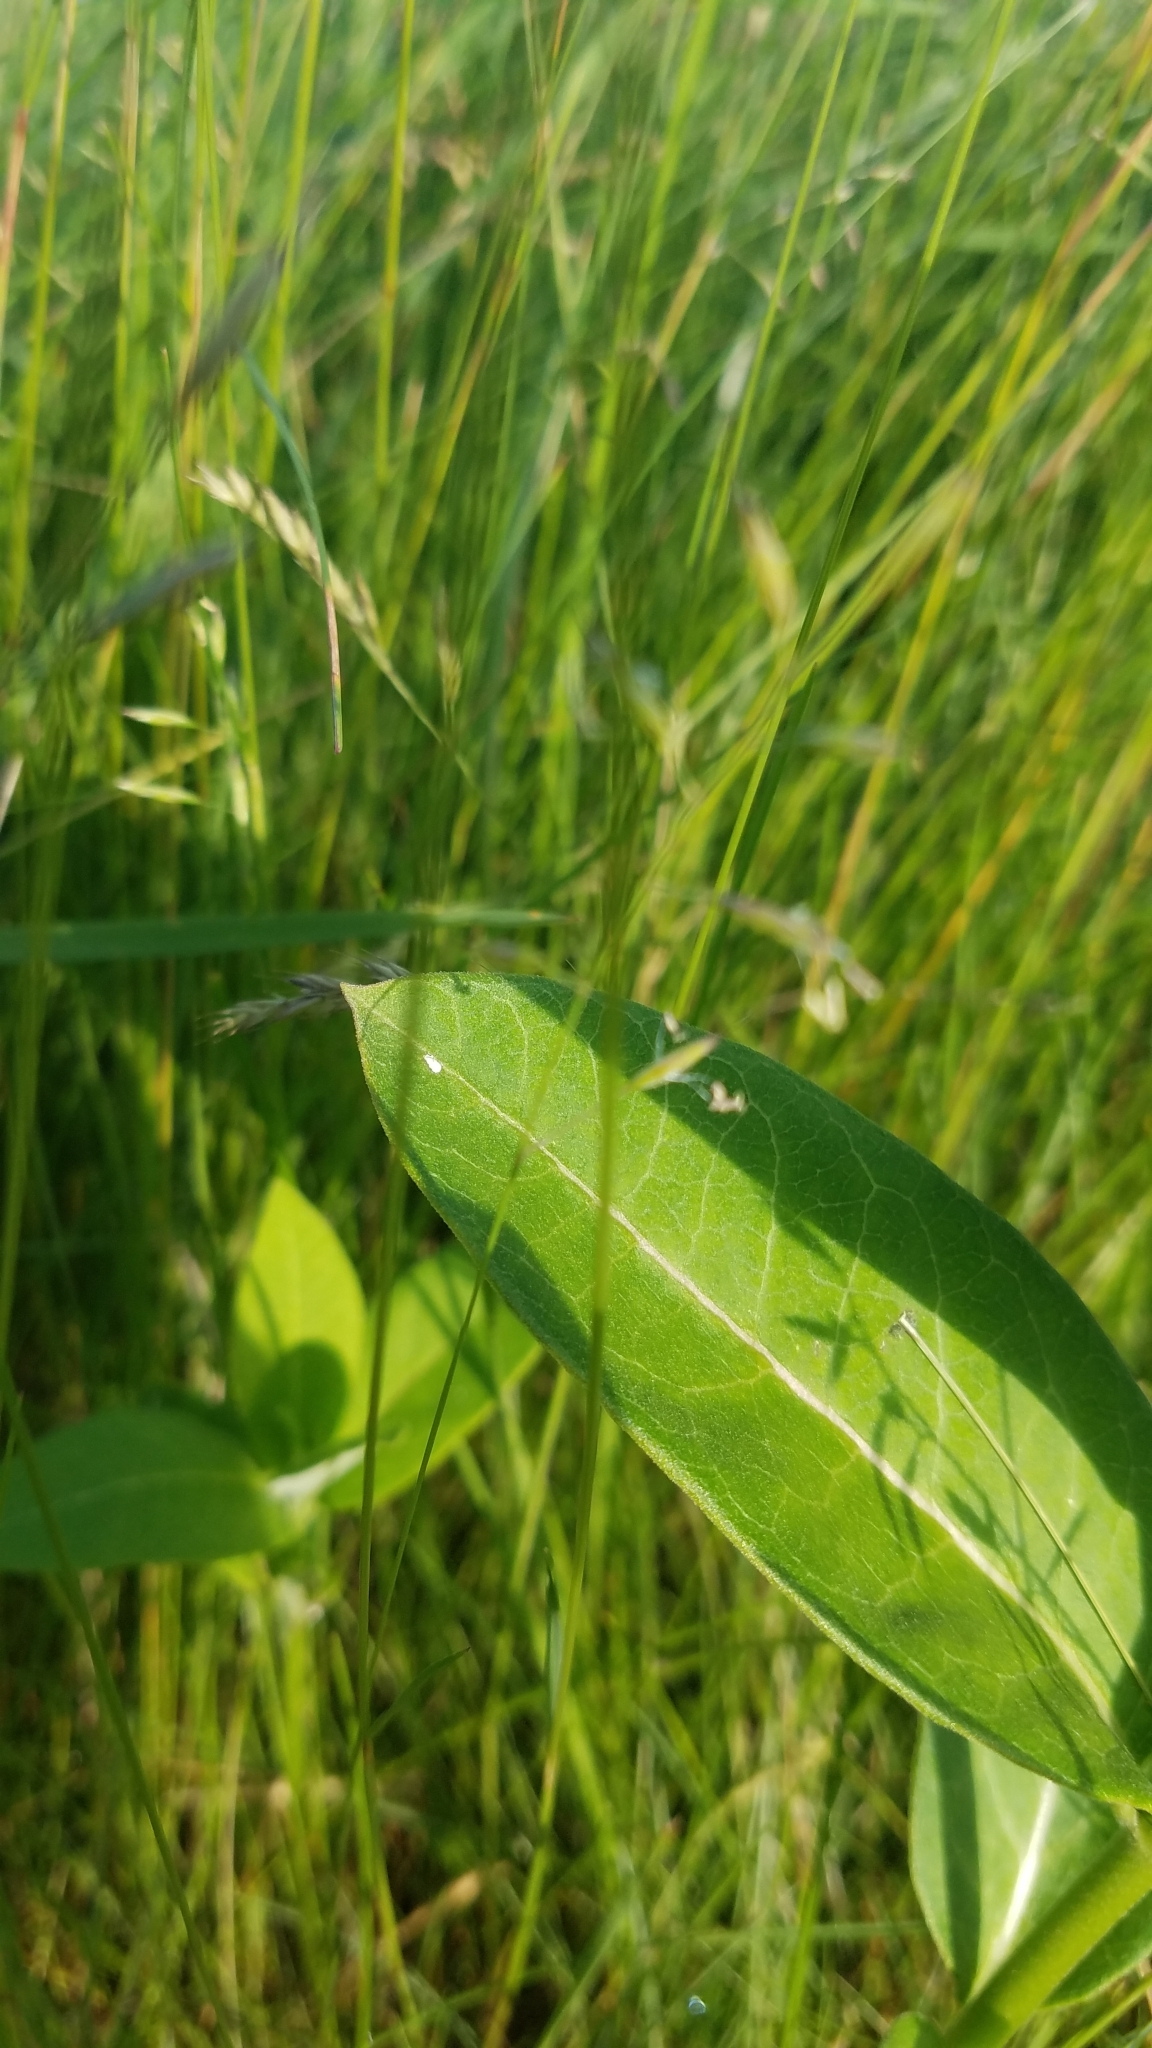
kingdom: Plantae
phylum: Tracheophyta
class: Magnoliopsida
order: Gentianales
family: Apocynaceae
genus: Asclepias
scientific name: Asclepias syriaca
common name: Common milkweed
